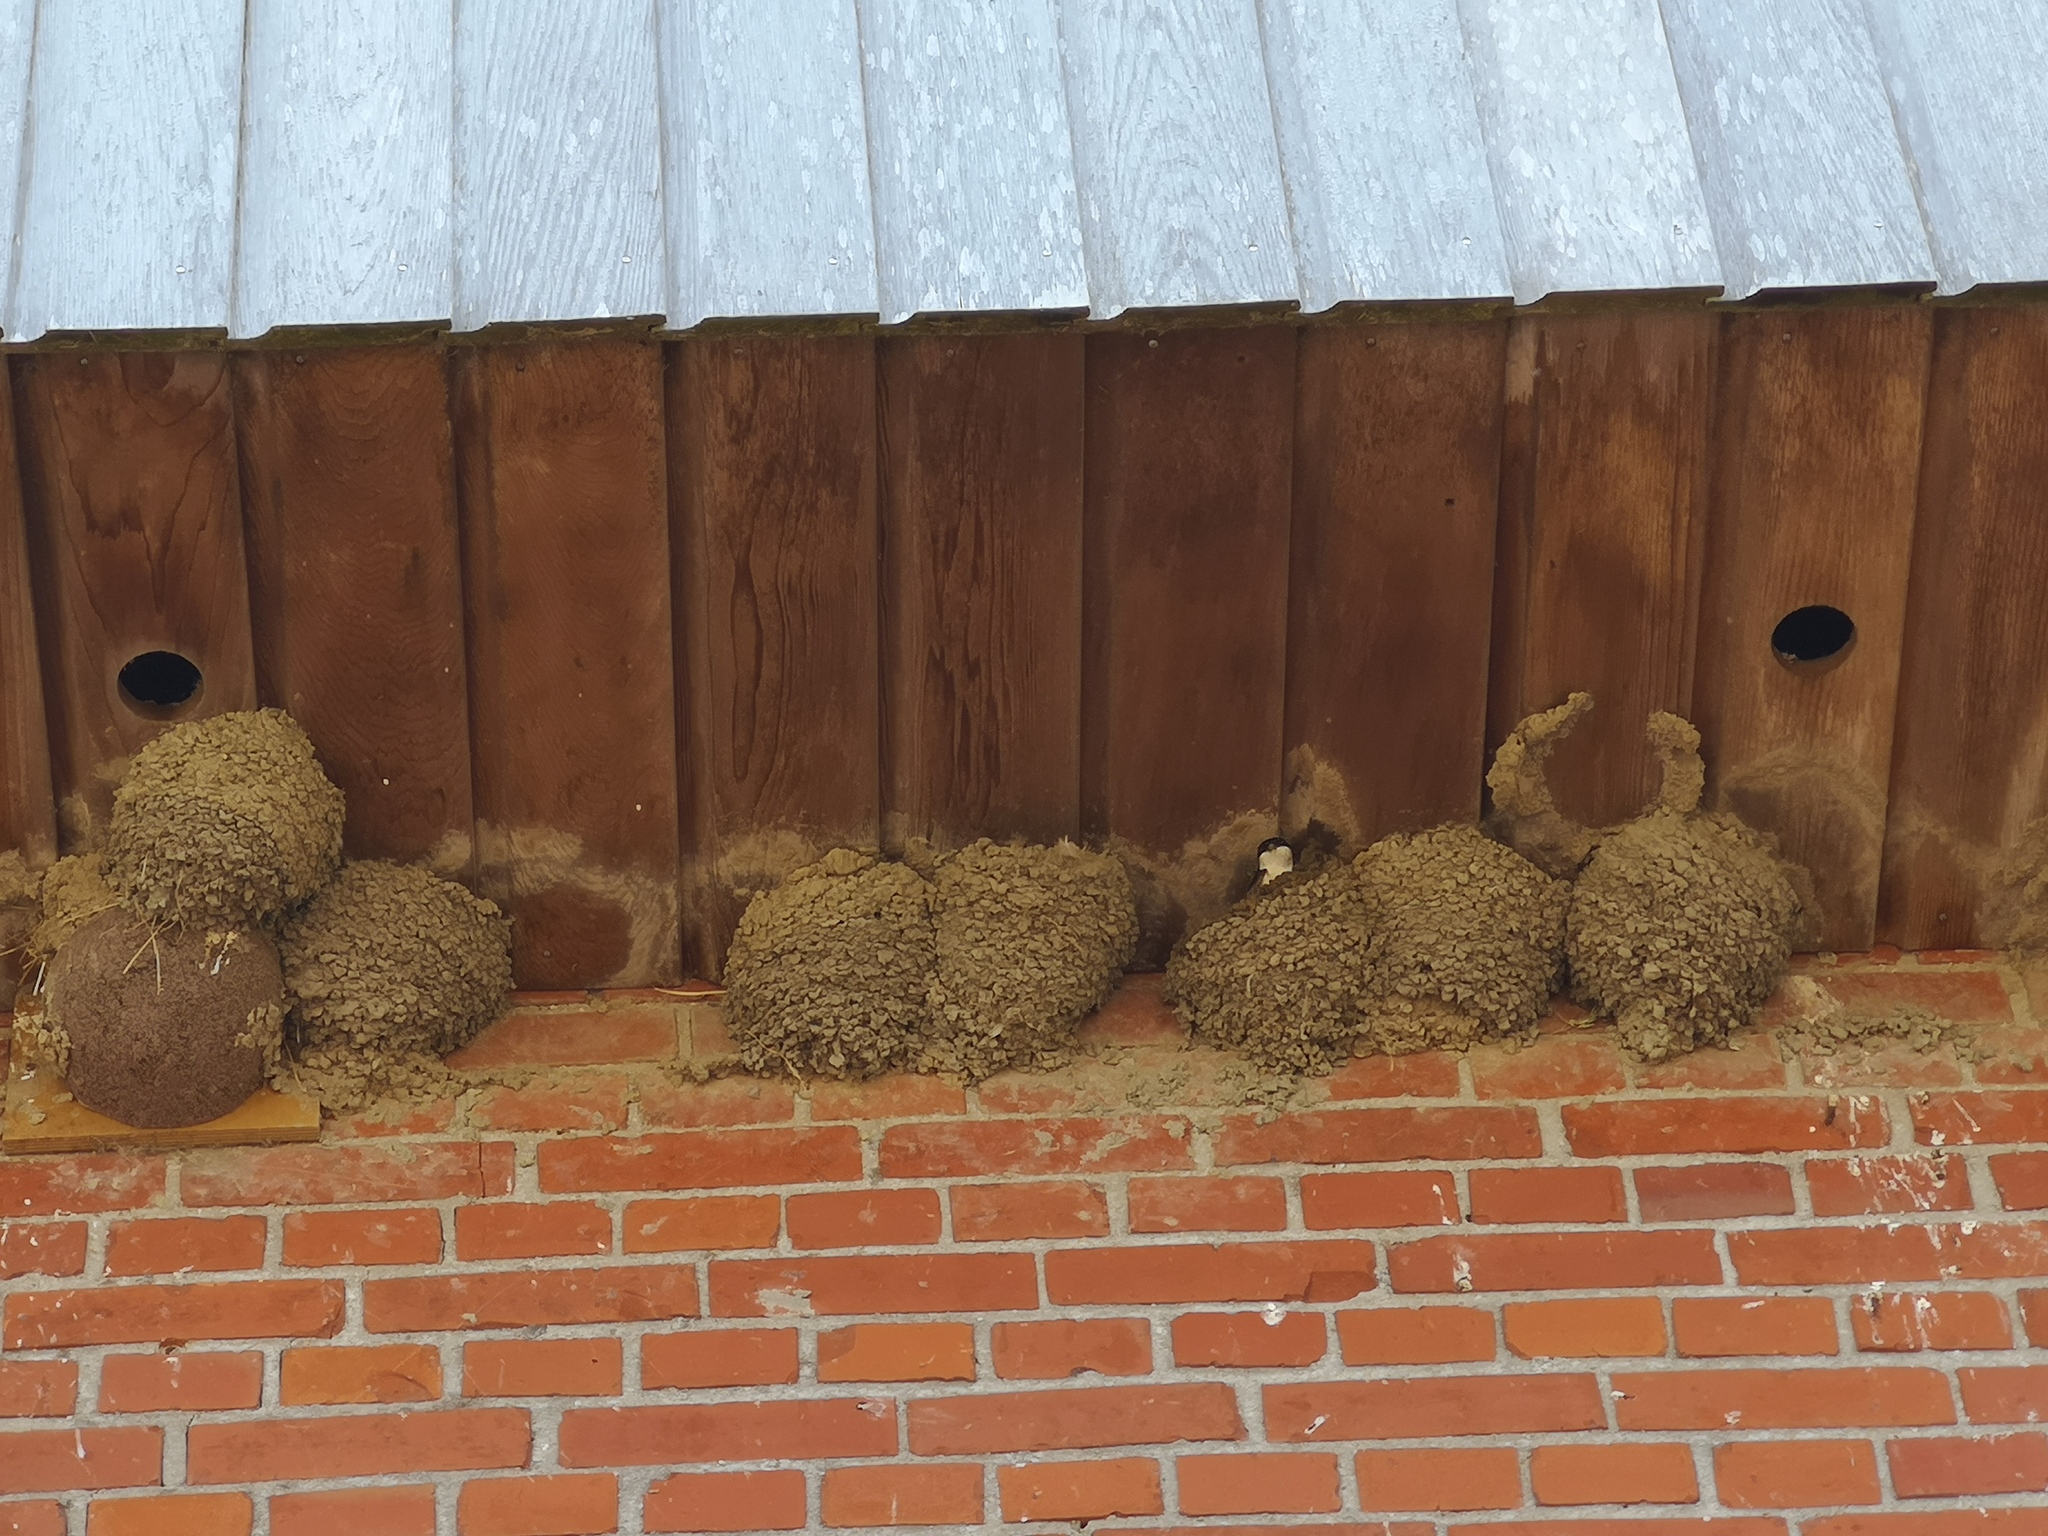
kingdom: Animalia
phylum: Chordata
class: Aves
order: Passeriformes
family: Hirundinidae
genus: Delichon
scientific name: Delichon urbicum
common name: Common house martin
